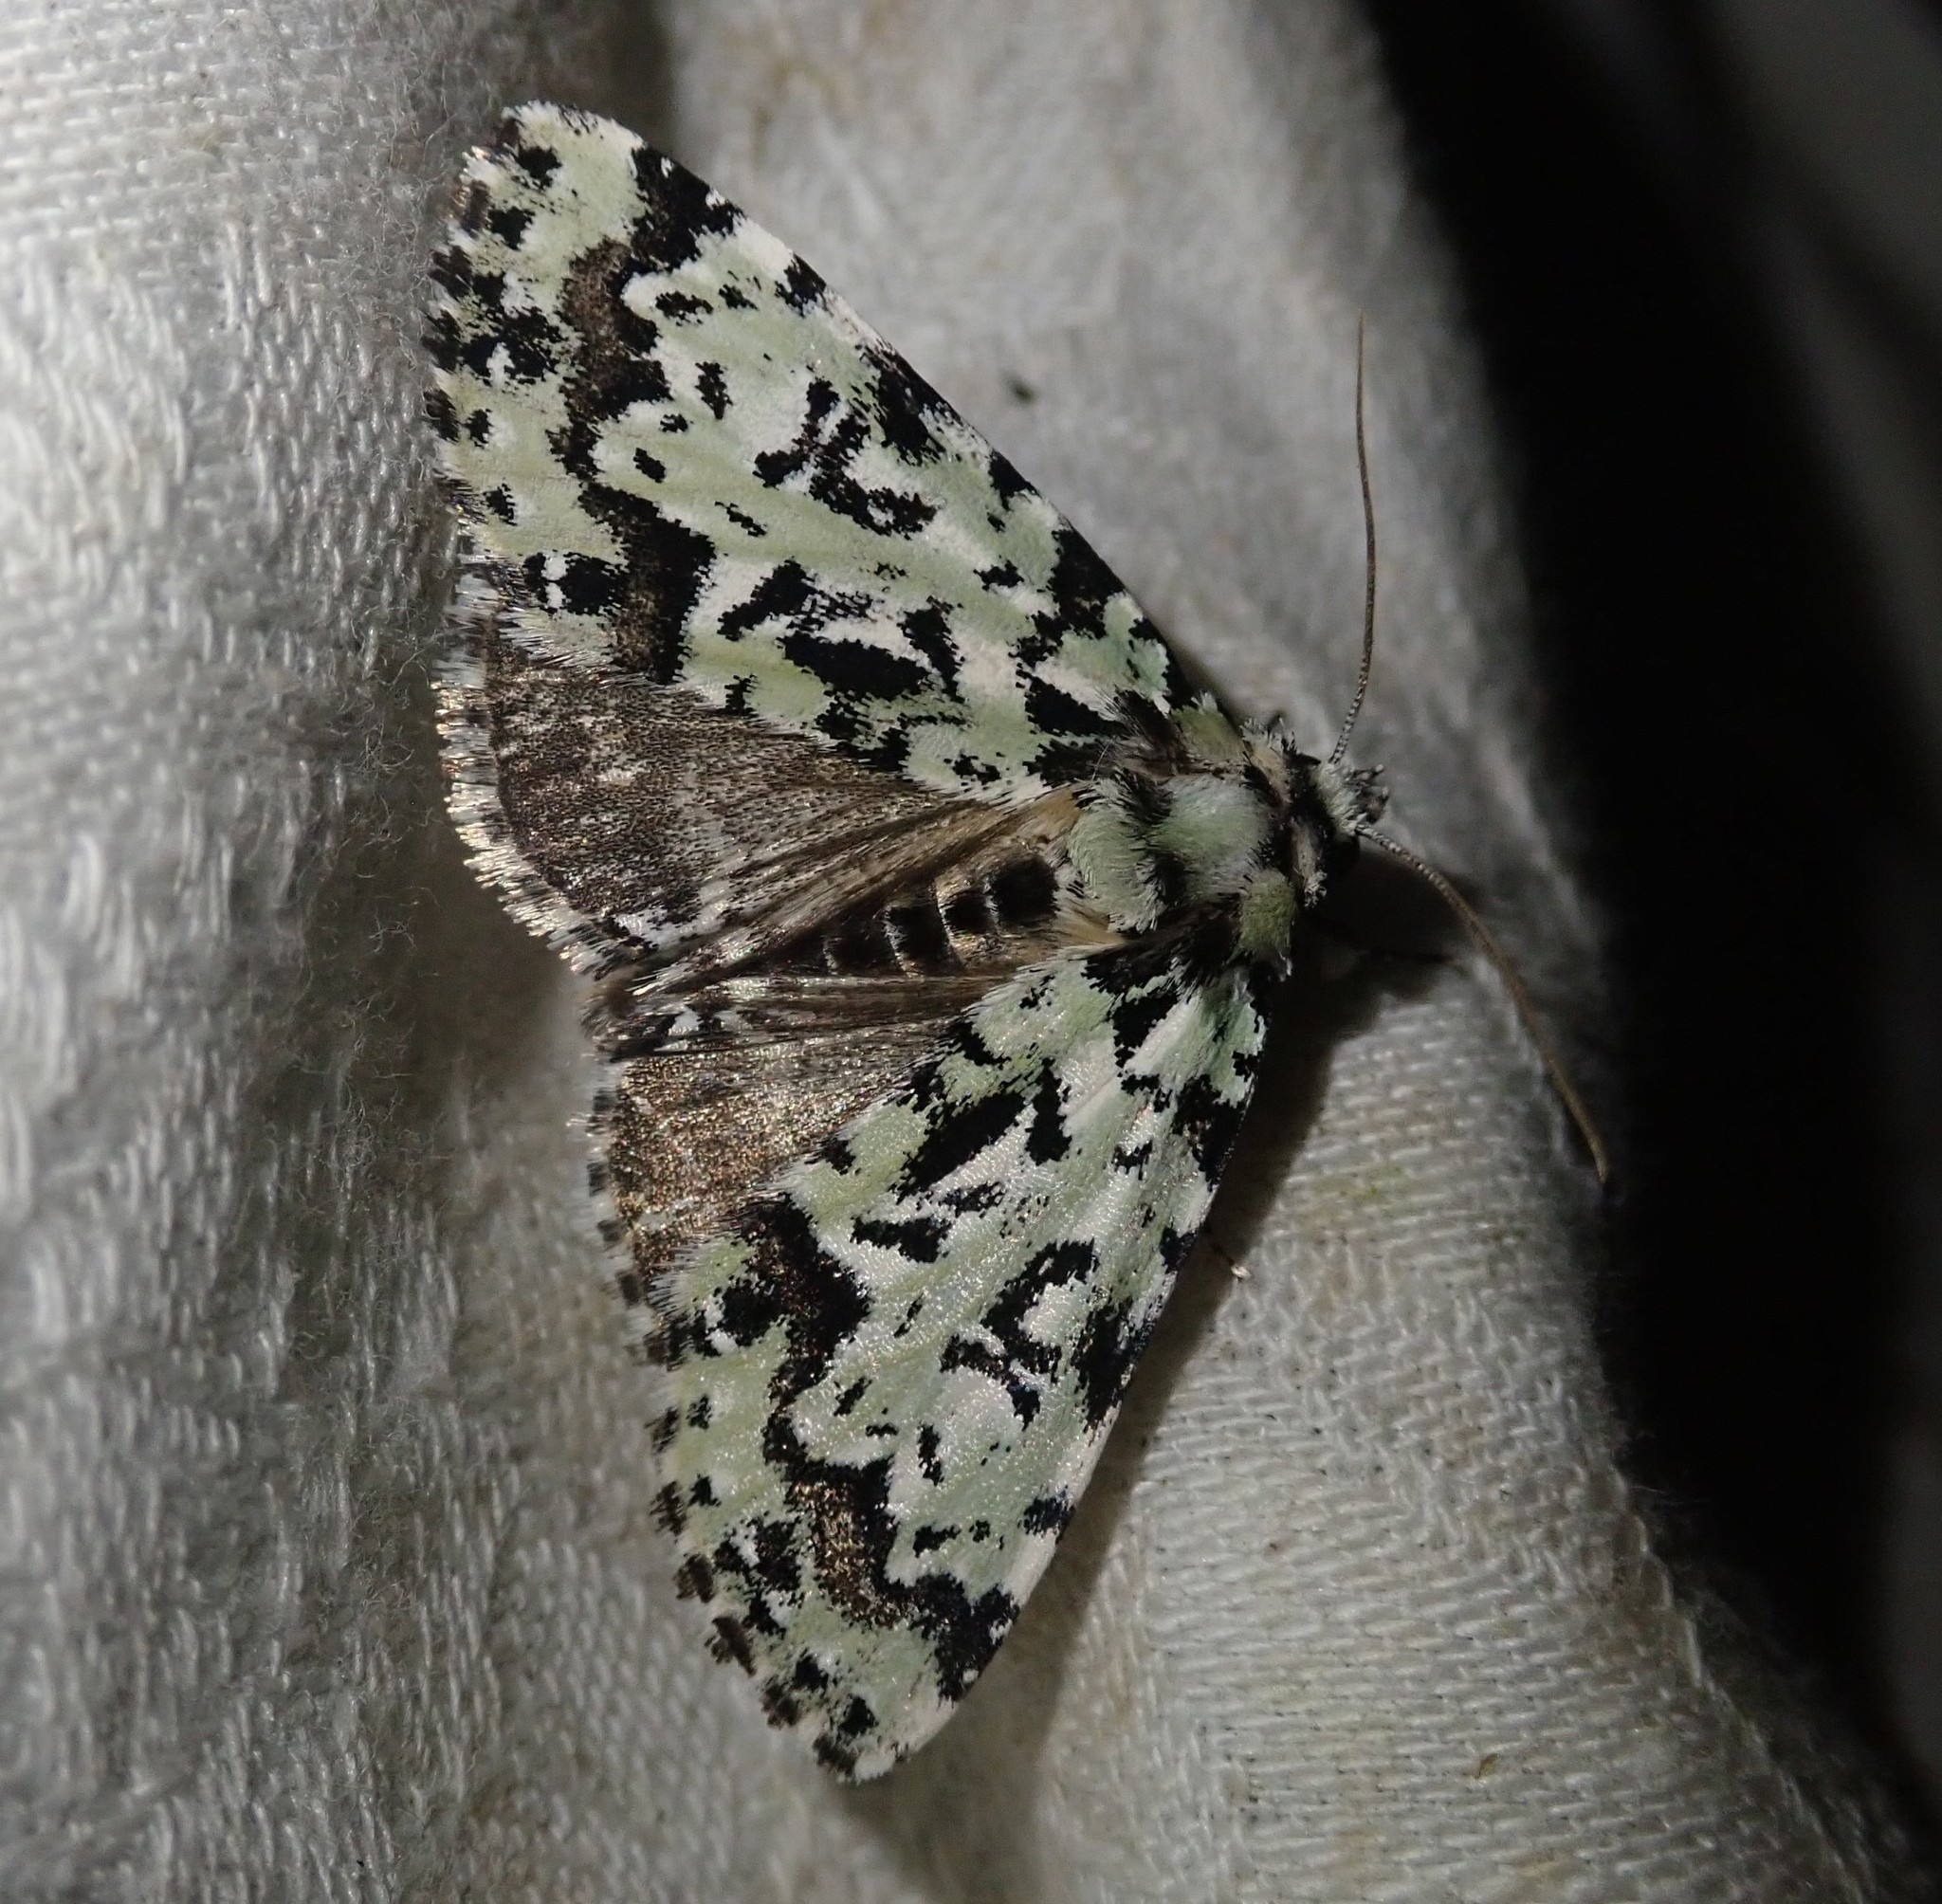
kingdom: Animalia
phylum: Arthropoda
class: Insecta
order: Lepidoptera
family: Noctuidae
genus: Moma
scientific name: Moma alpium
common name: Scarce merveille du jour
